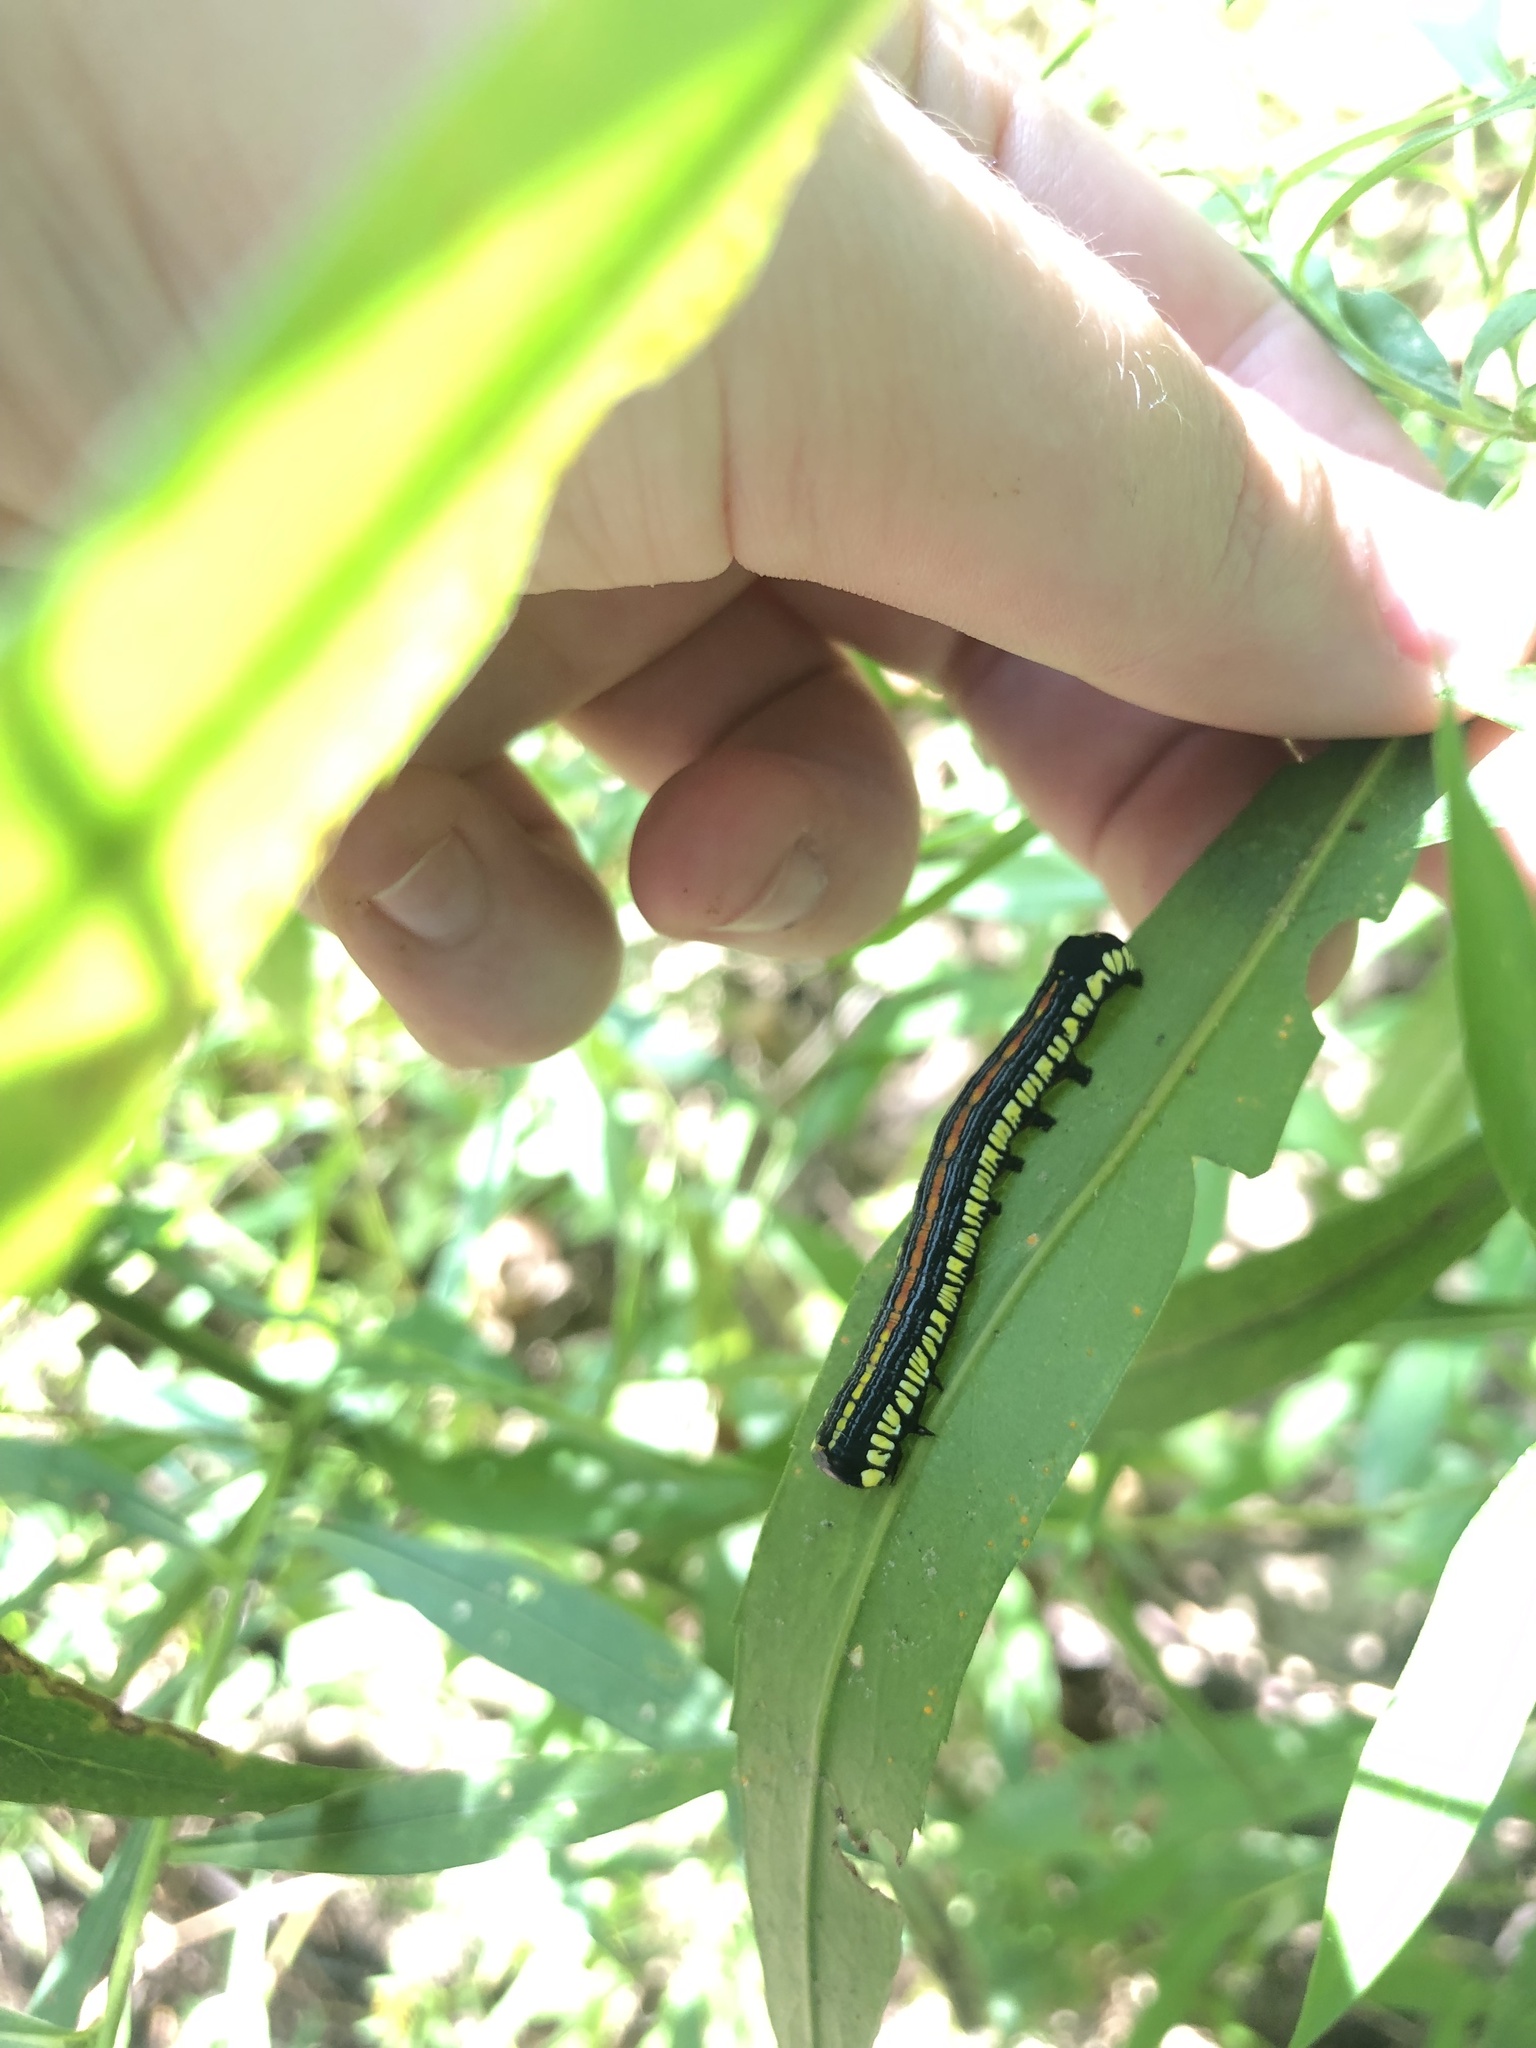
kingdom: Animalia
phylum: Arthropoda
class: Insecta
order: Lepidoptera
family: Noctuidae
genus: Cucullia
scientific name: Cucullia convexipennis
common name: Brown-hooded owlet
